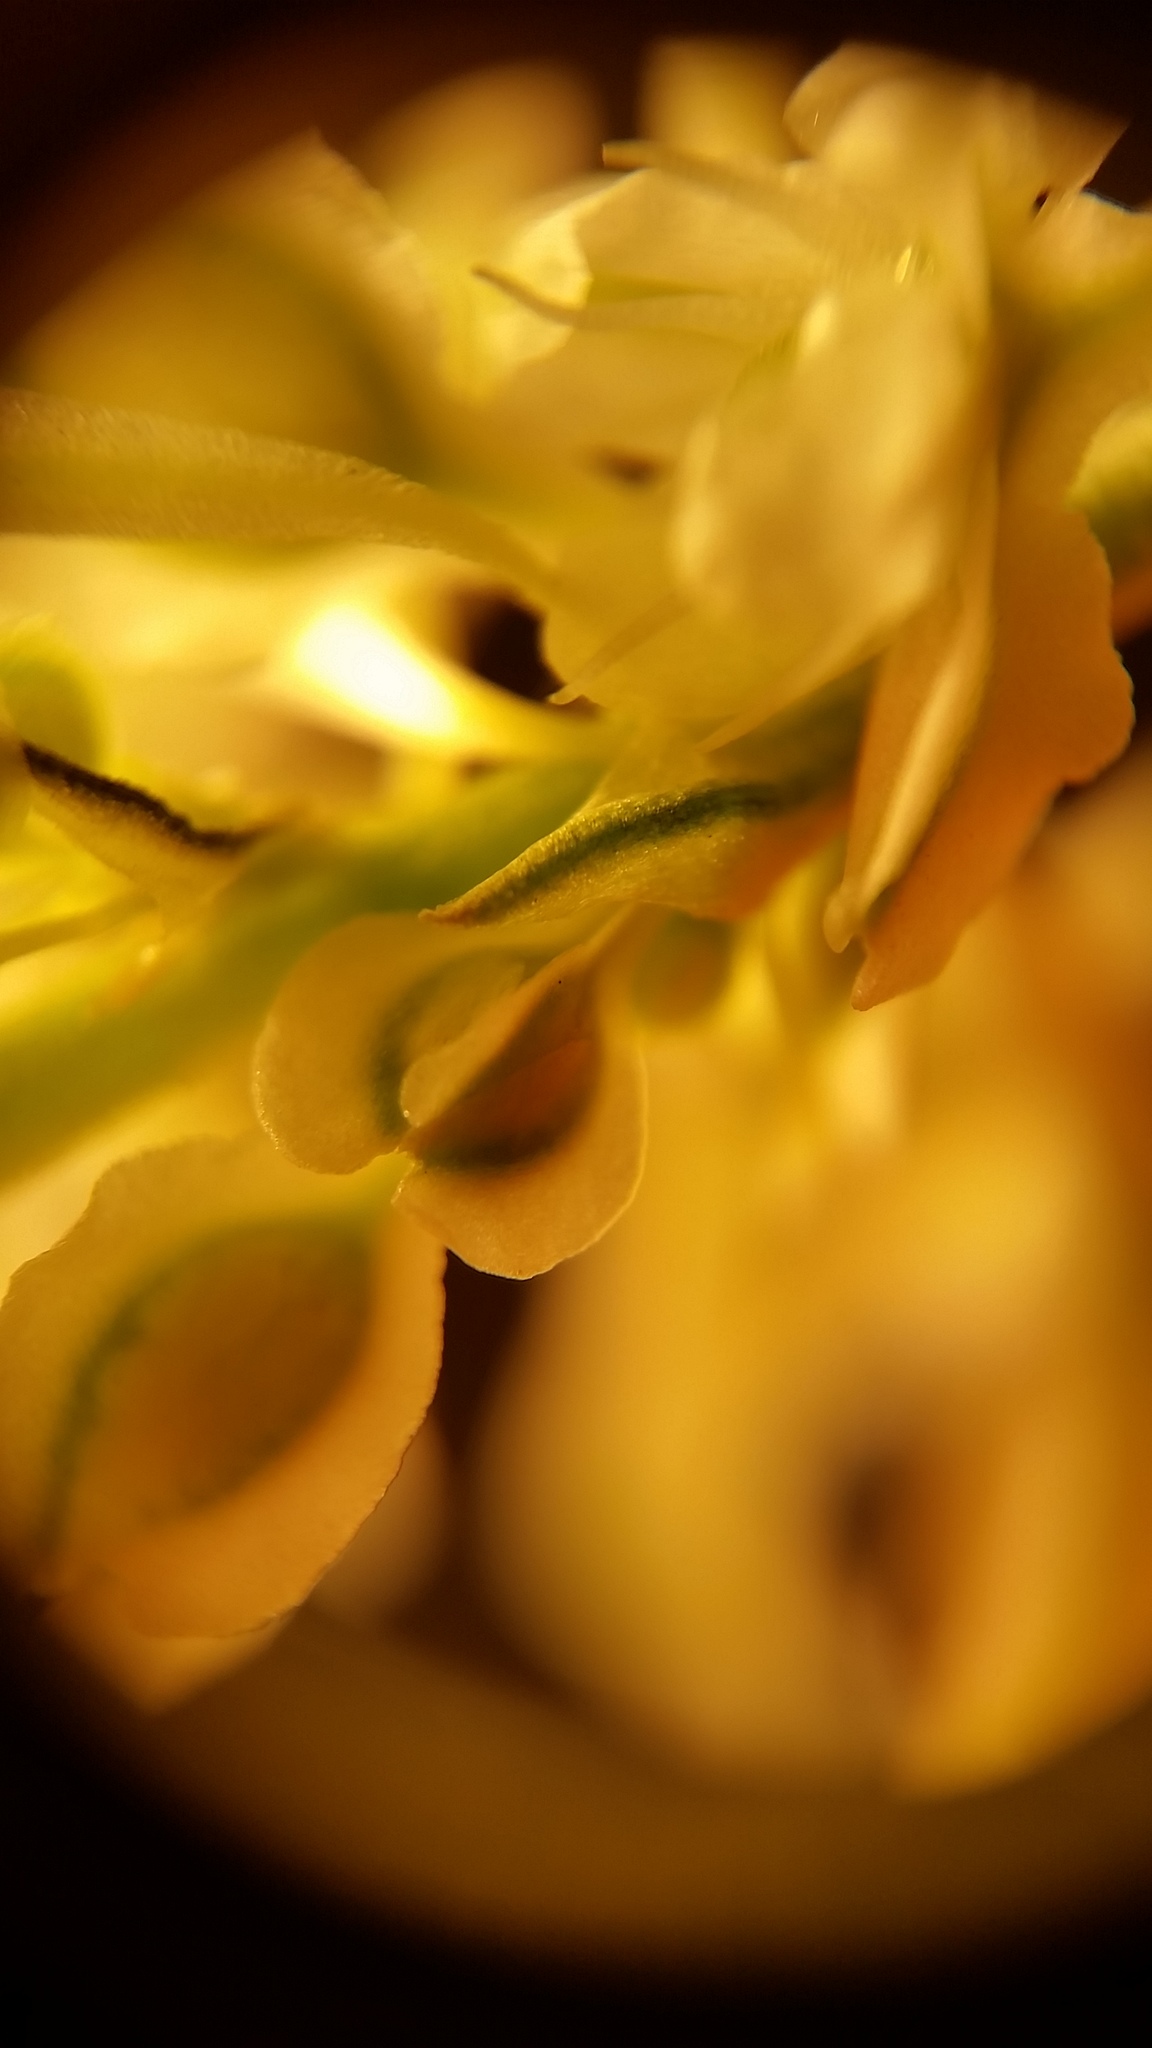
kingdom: Plantae
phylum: Tracheophyta
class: Magnoliopsida
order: Caryophyllales
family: Polygonaceae
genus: Fallopia
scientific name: Fallopia baldschuanica
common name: Russian-vine
